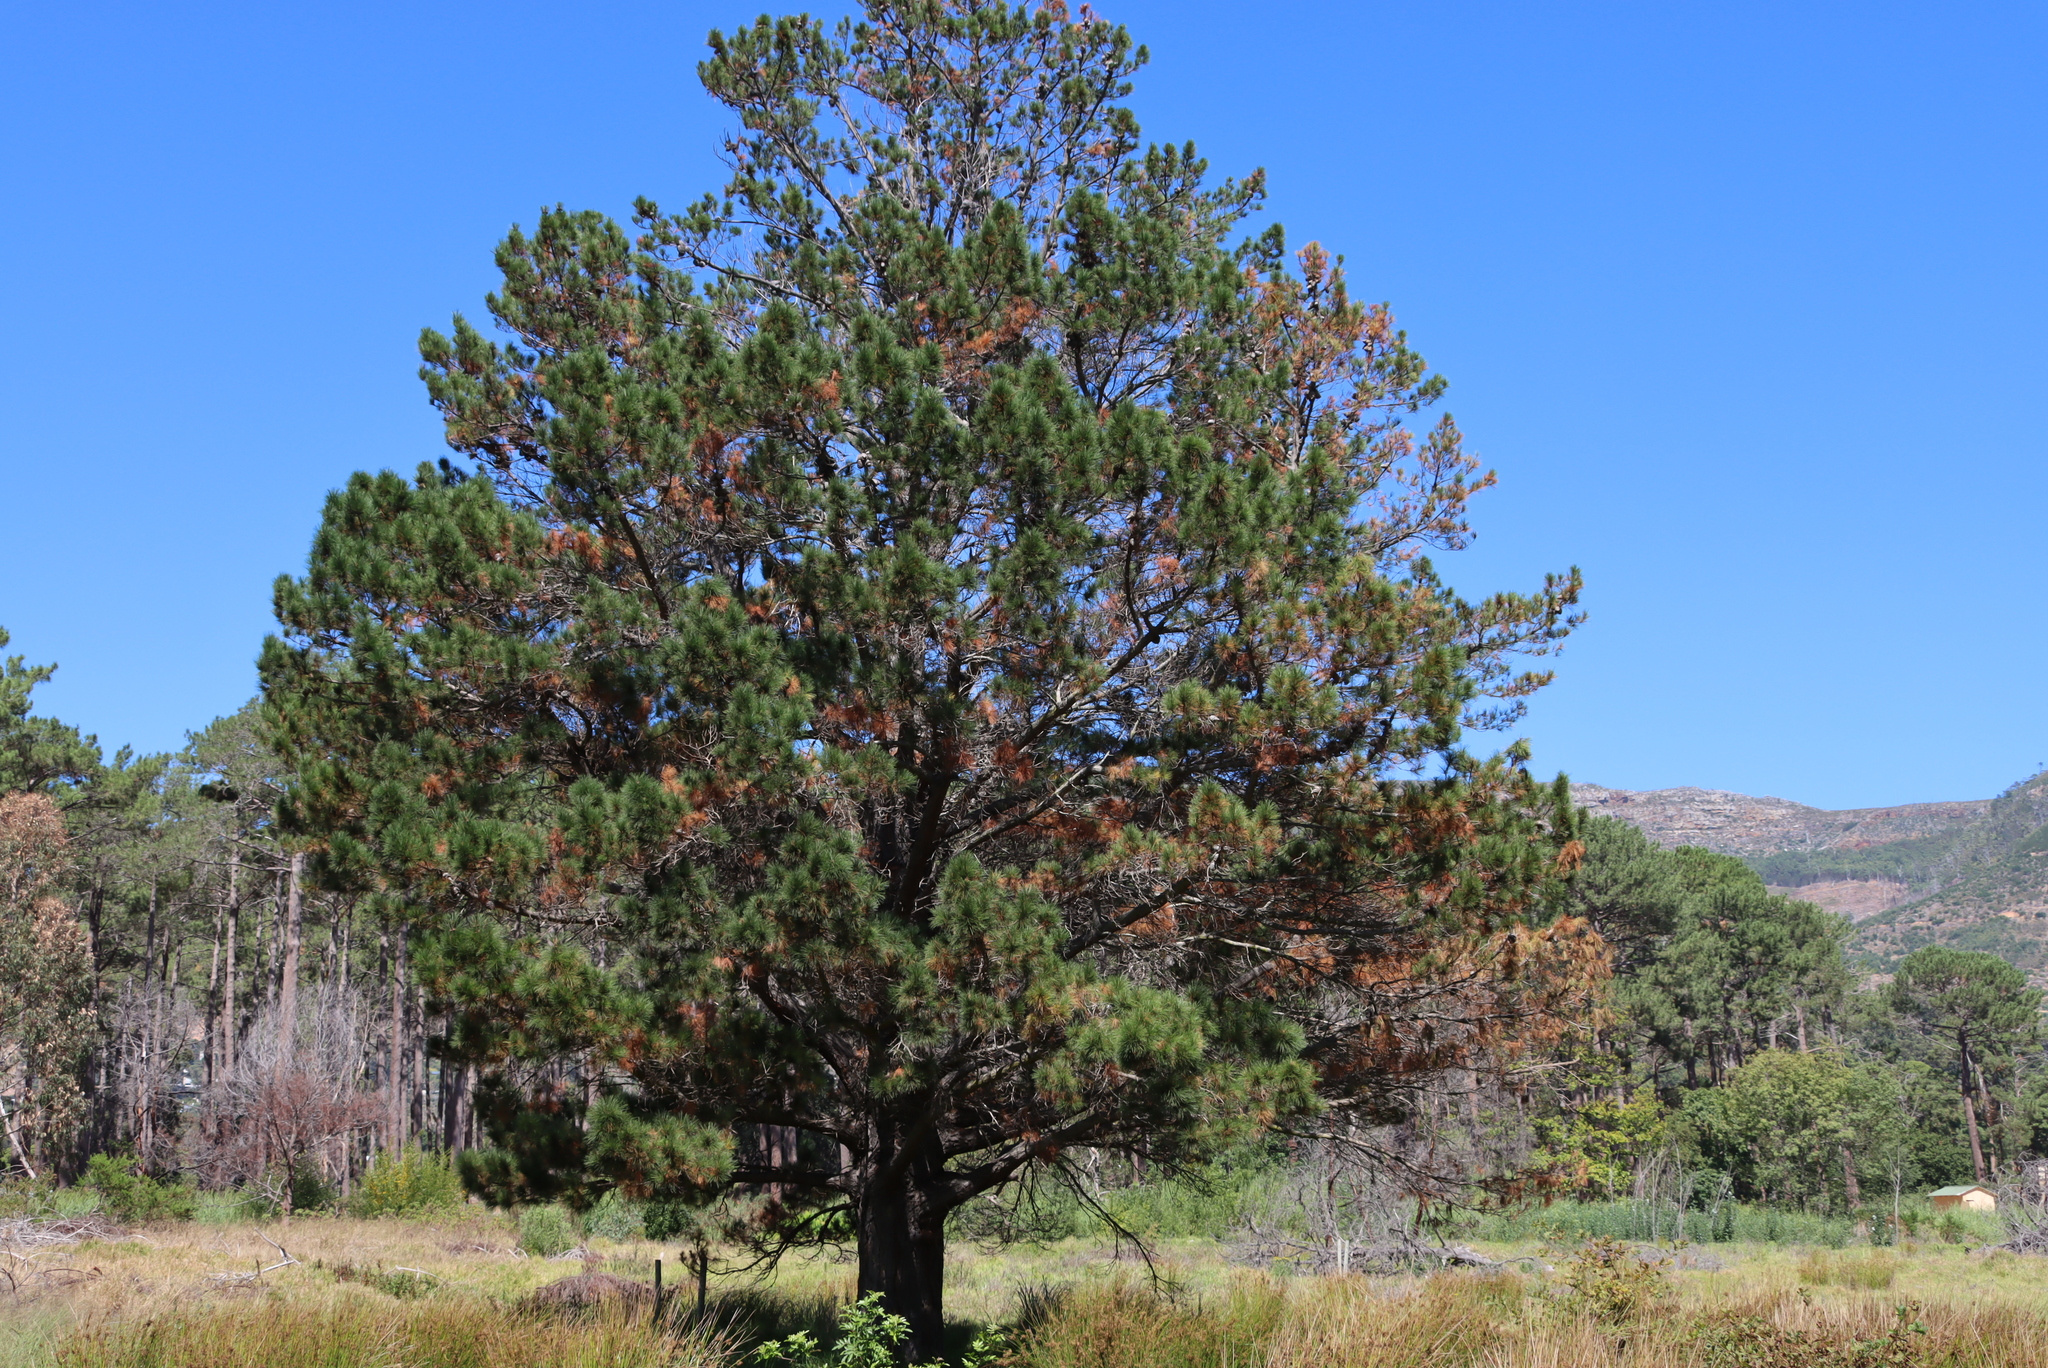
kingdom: Plantae
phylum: Tracheophyta
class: Pinopsida
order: Pinales
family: Pinaceae
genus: Pinus
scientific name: Pinus radiata
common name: Monterey pine
